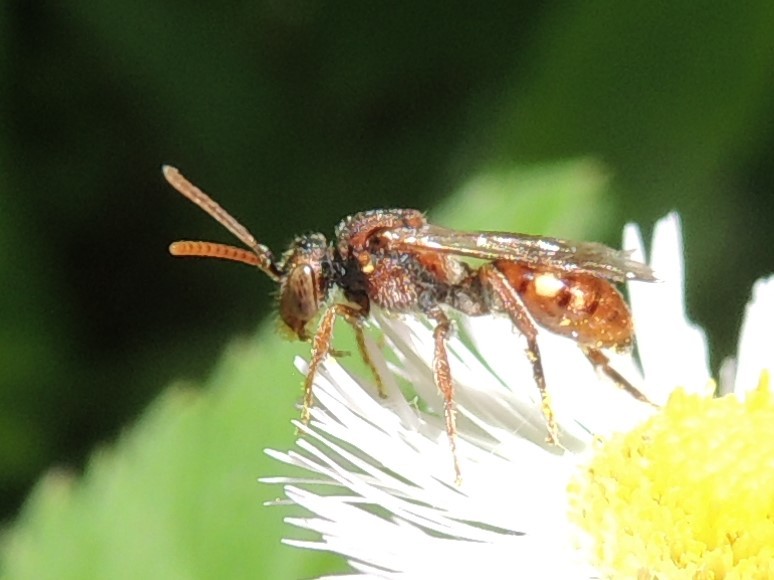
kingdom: Animalia
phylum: Arthropoda
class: Insecta
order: Hymenoptera
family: Apidae
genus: Nomada
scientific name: Nomada
